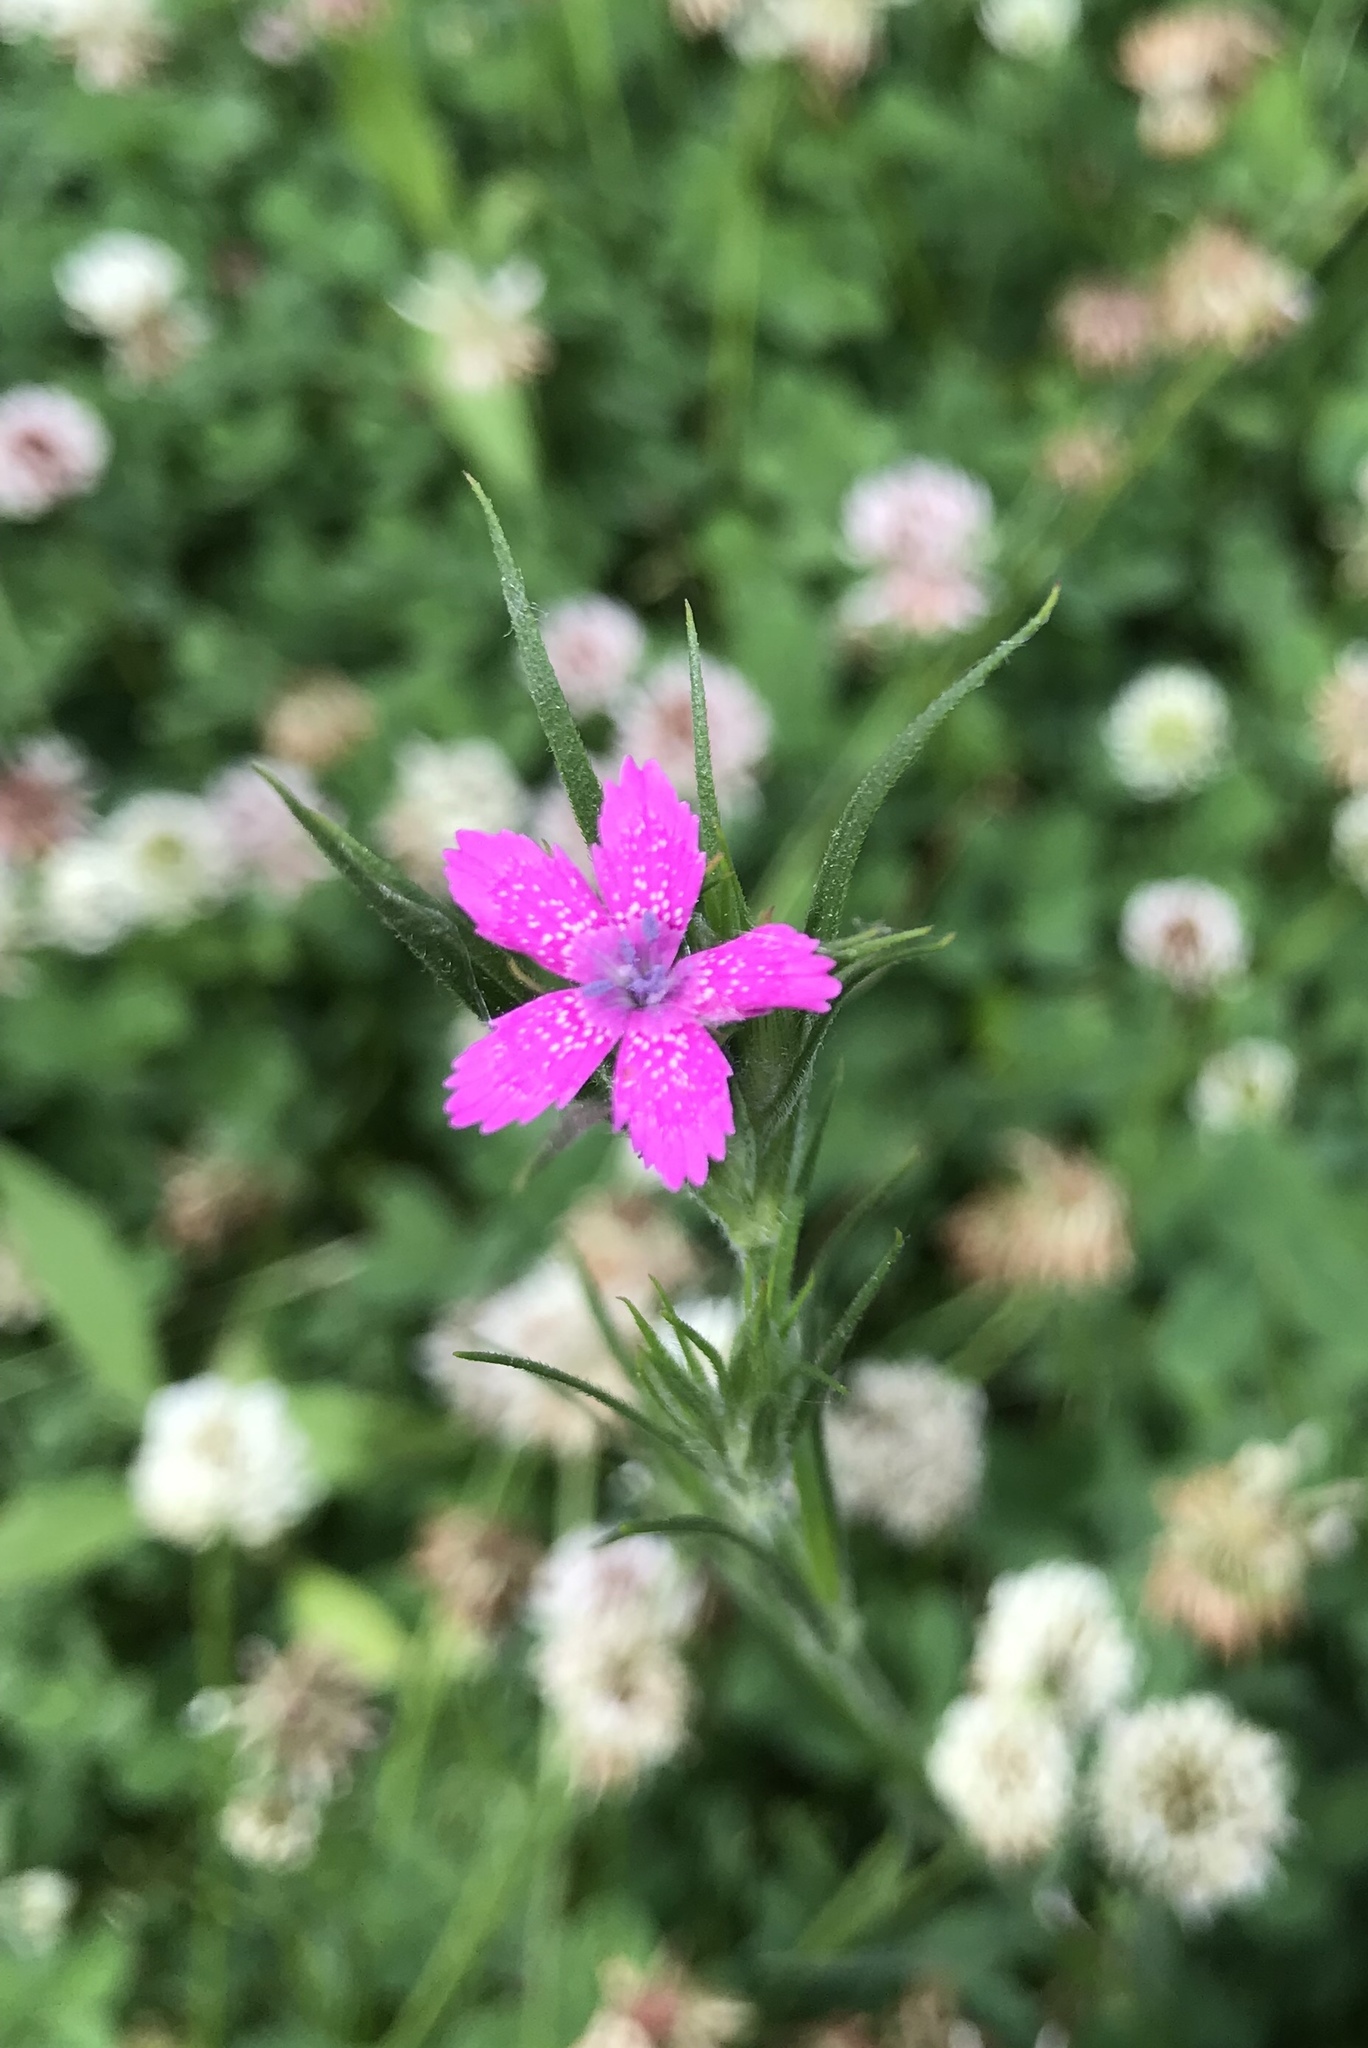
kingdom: Plantae
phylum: Tracheophyta
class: Magnoliopsida
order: Caryophyllales
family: Caryophyllaceae
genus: Dianthus
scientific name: Dianthus armeria
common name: Deptford pink
